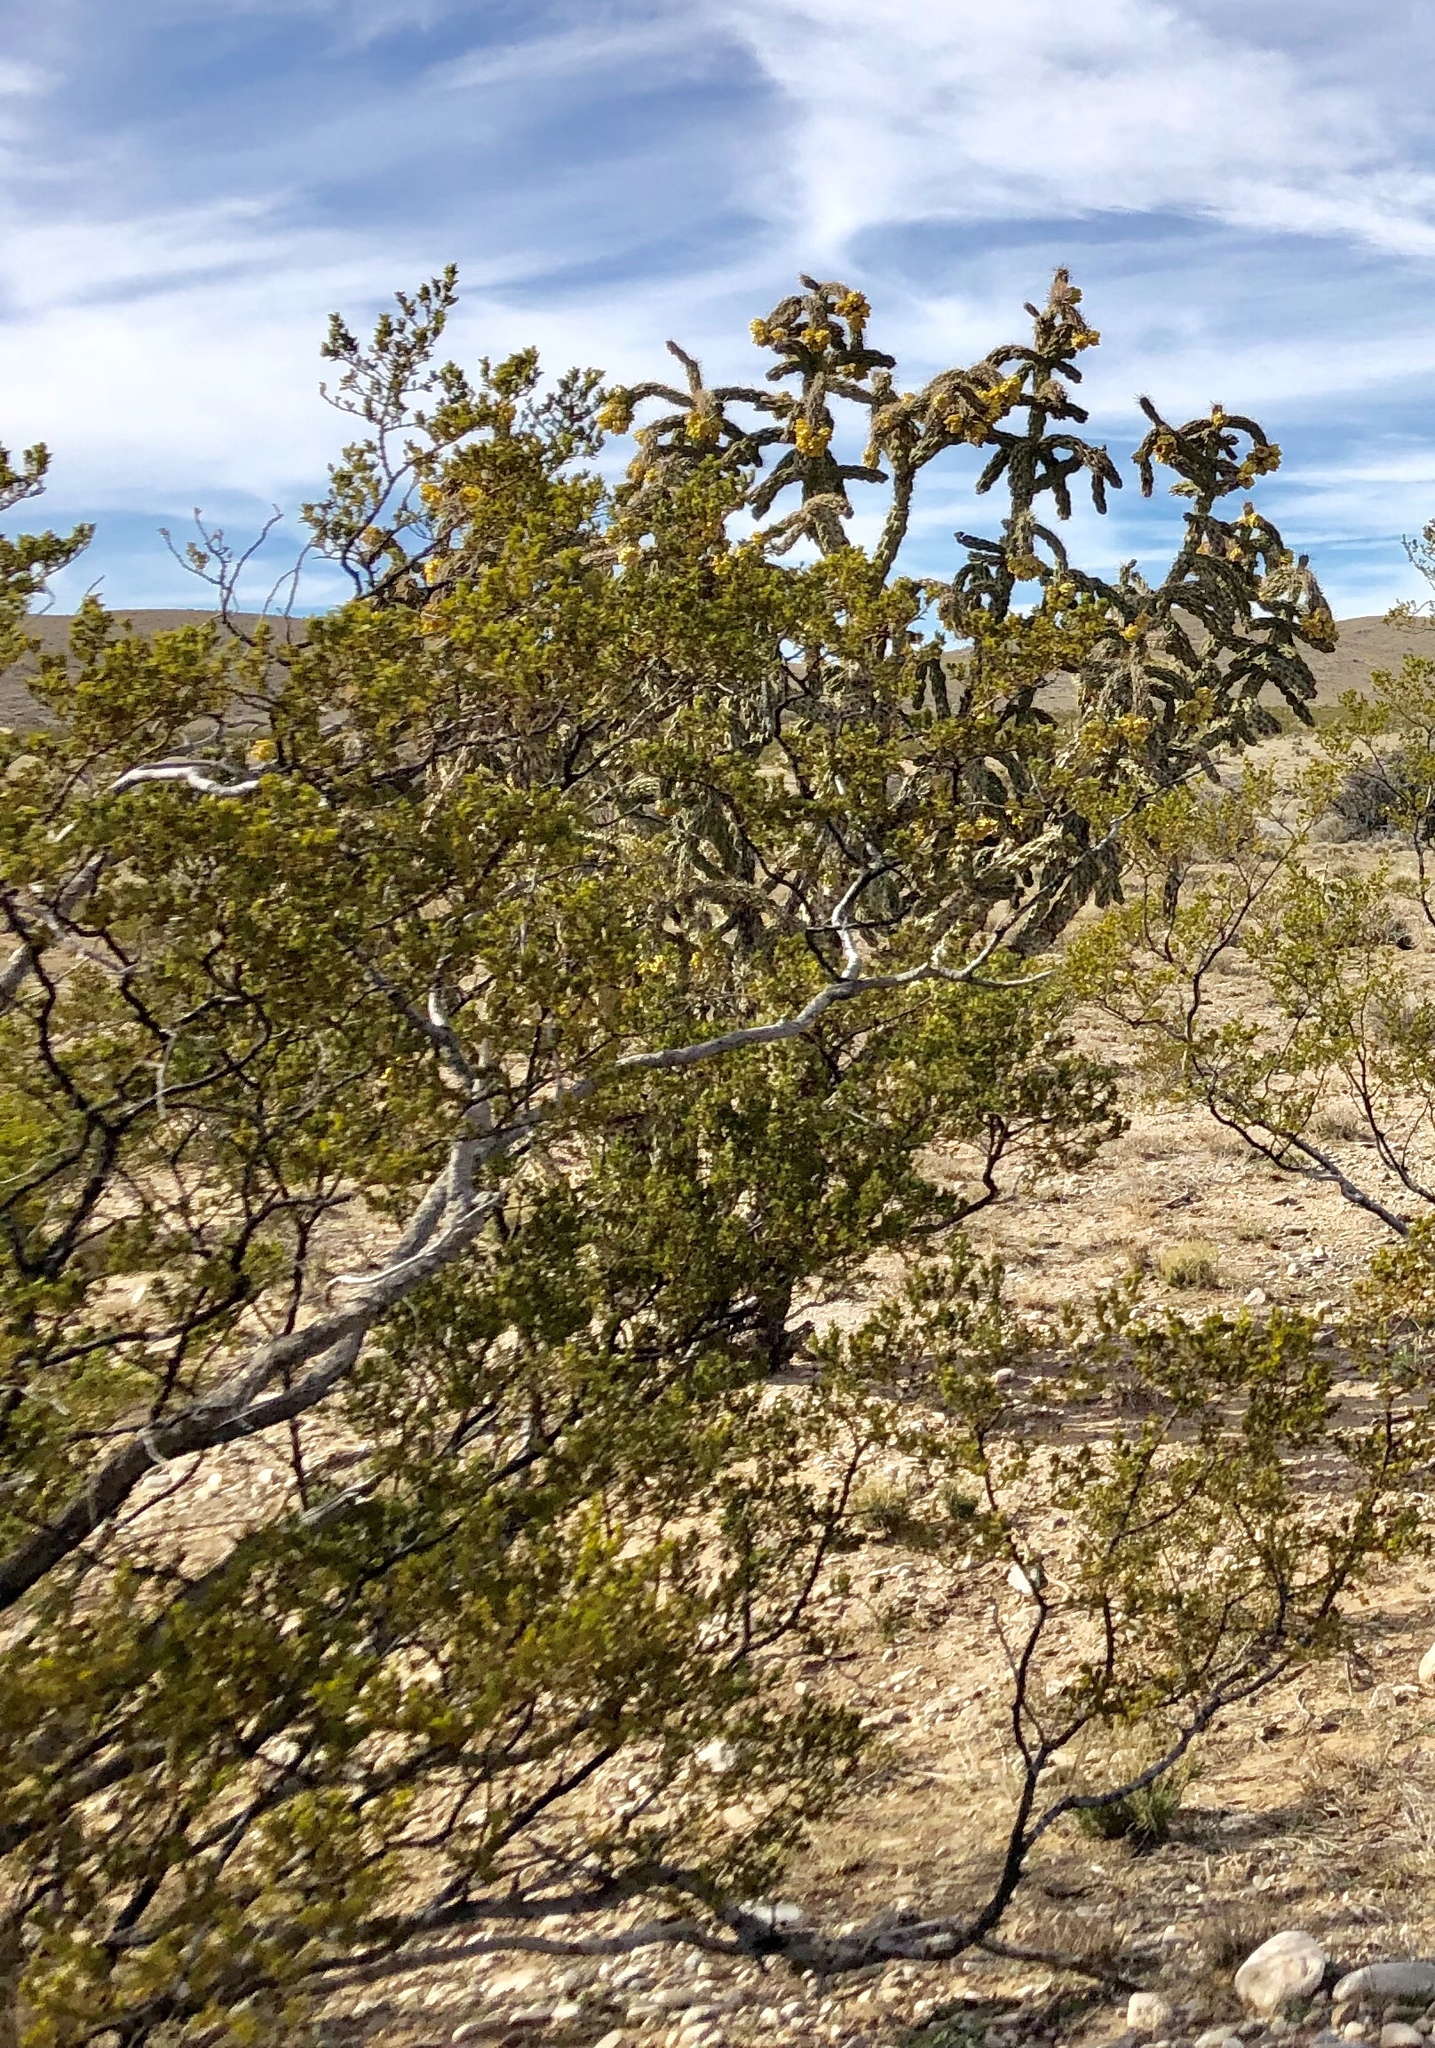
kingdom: Plantae
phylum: Tracheophyta
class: Magnoliopsida
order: Zygophyllales
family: Zygophyllaceae
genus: Larrea
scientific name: Larrea tridentata
